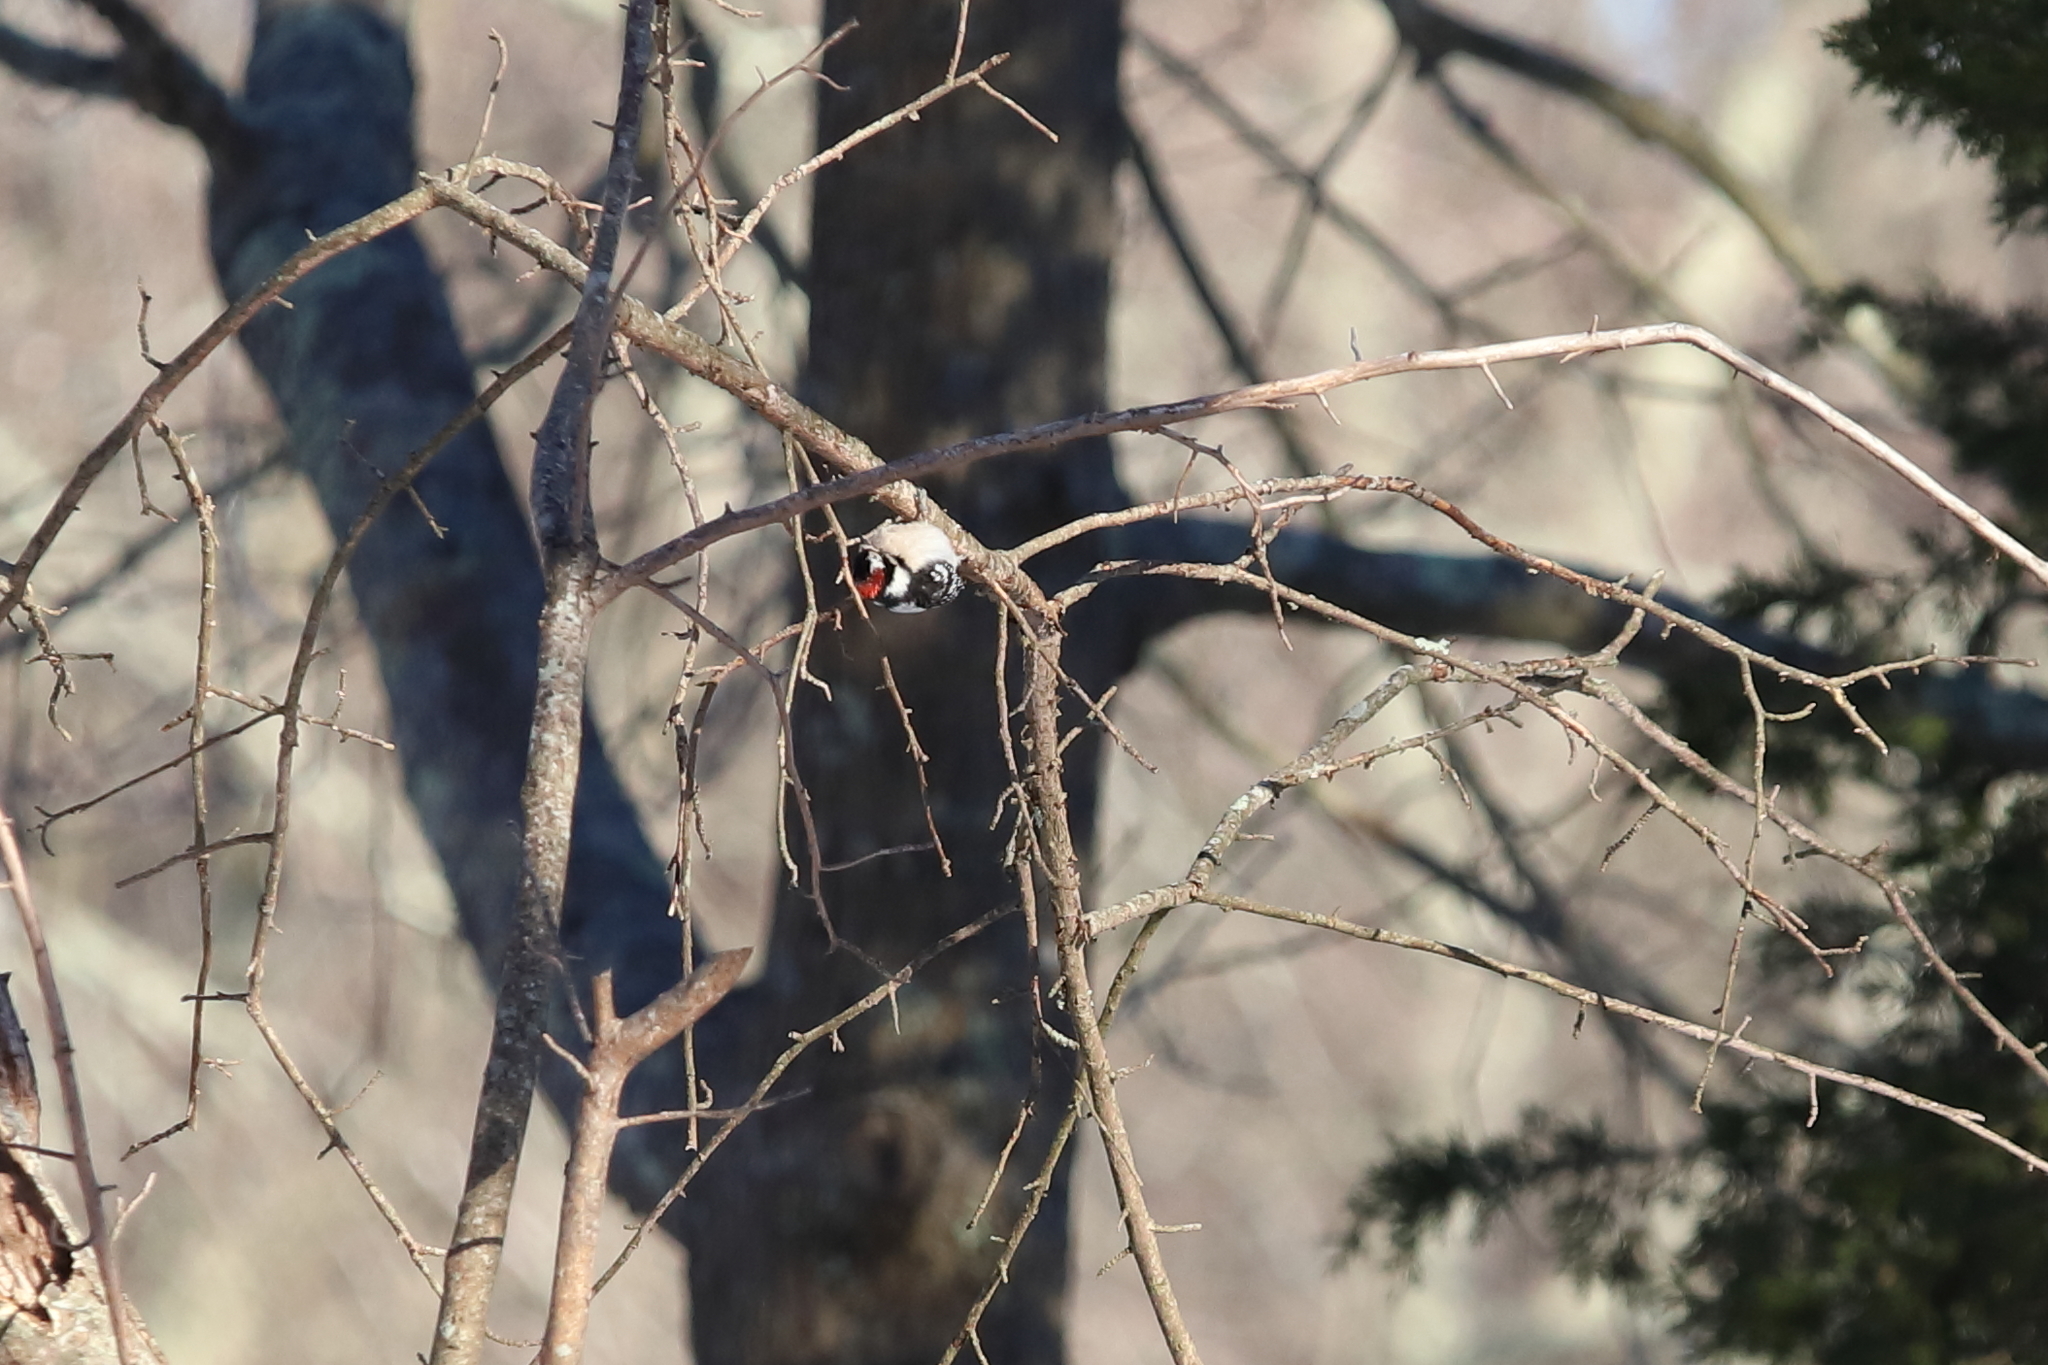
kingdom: Animalia
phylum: Chordata
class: Aves
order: Piciformes
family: Picidae
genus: Dryobates
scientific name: Dryobates pubescens
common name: Downy woodpecker
